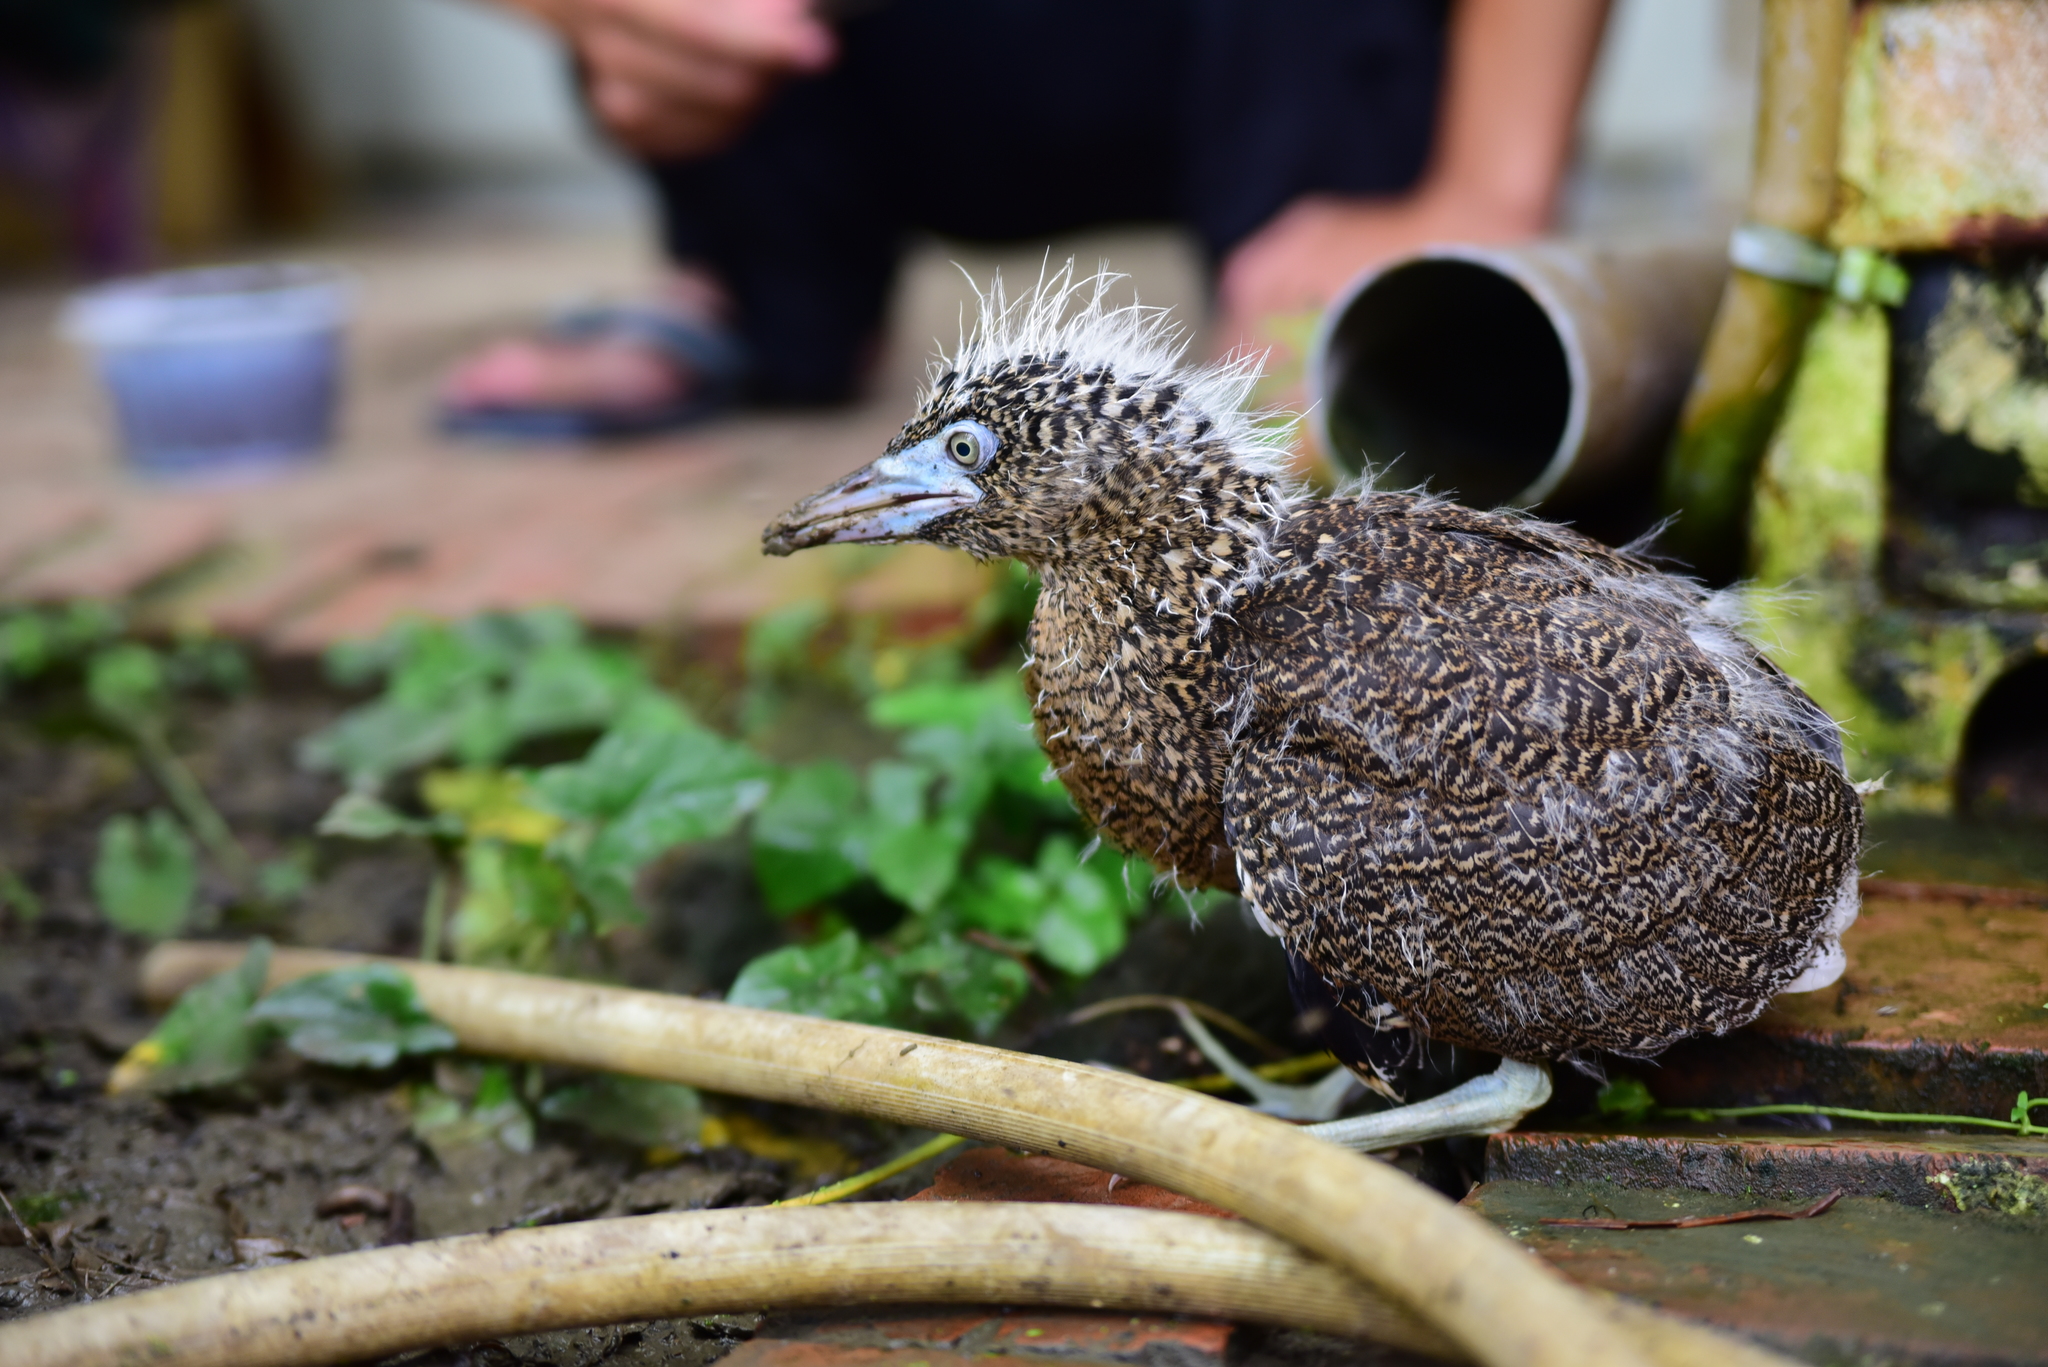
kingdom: Animalia
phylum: Chordata
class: Aves
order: Pelecaniformes
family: Ardeidae
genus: Gorsachius
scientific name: Gorsachius melanolophus
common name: Malayan night heron
